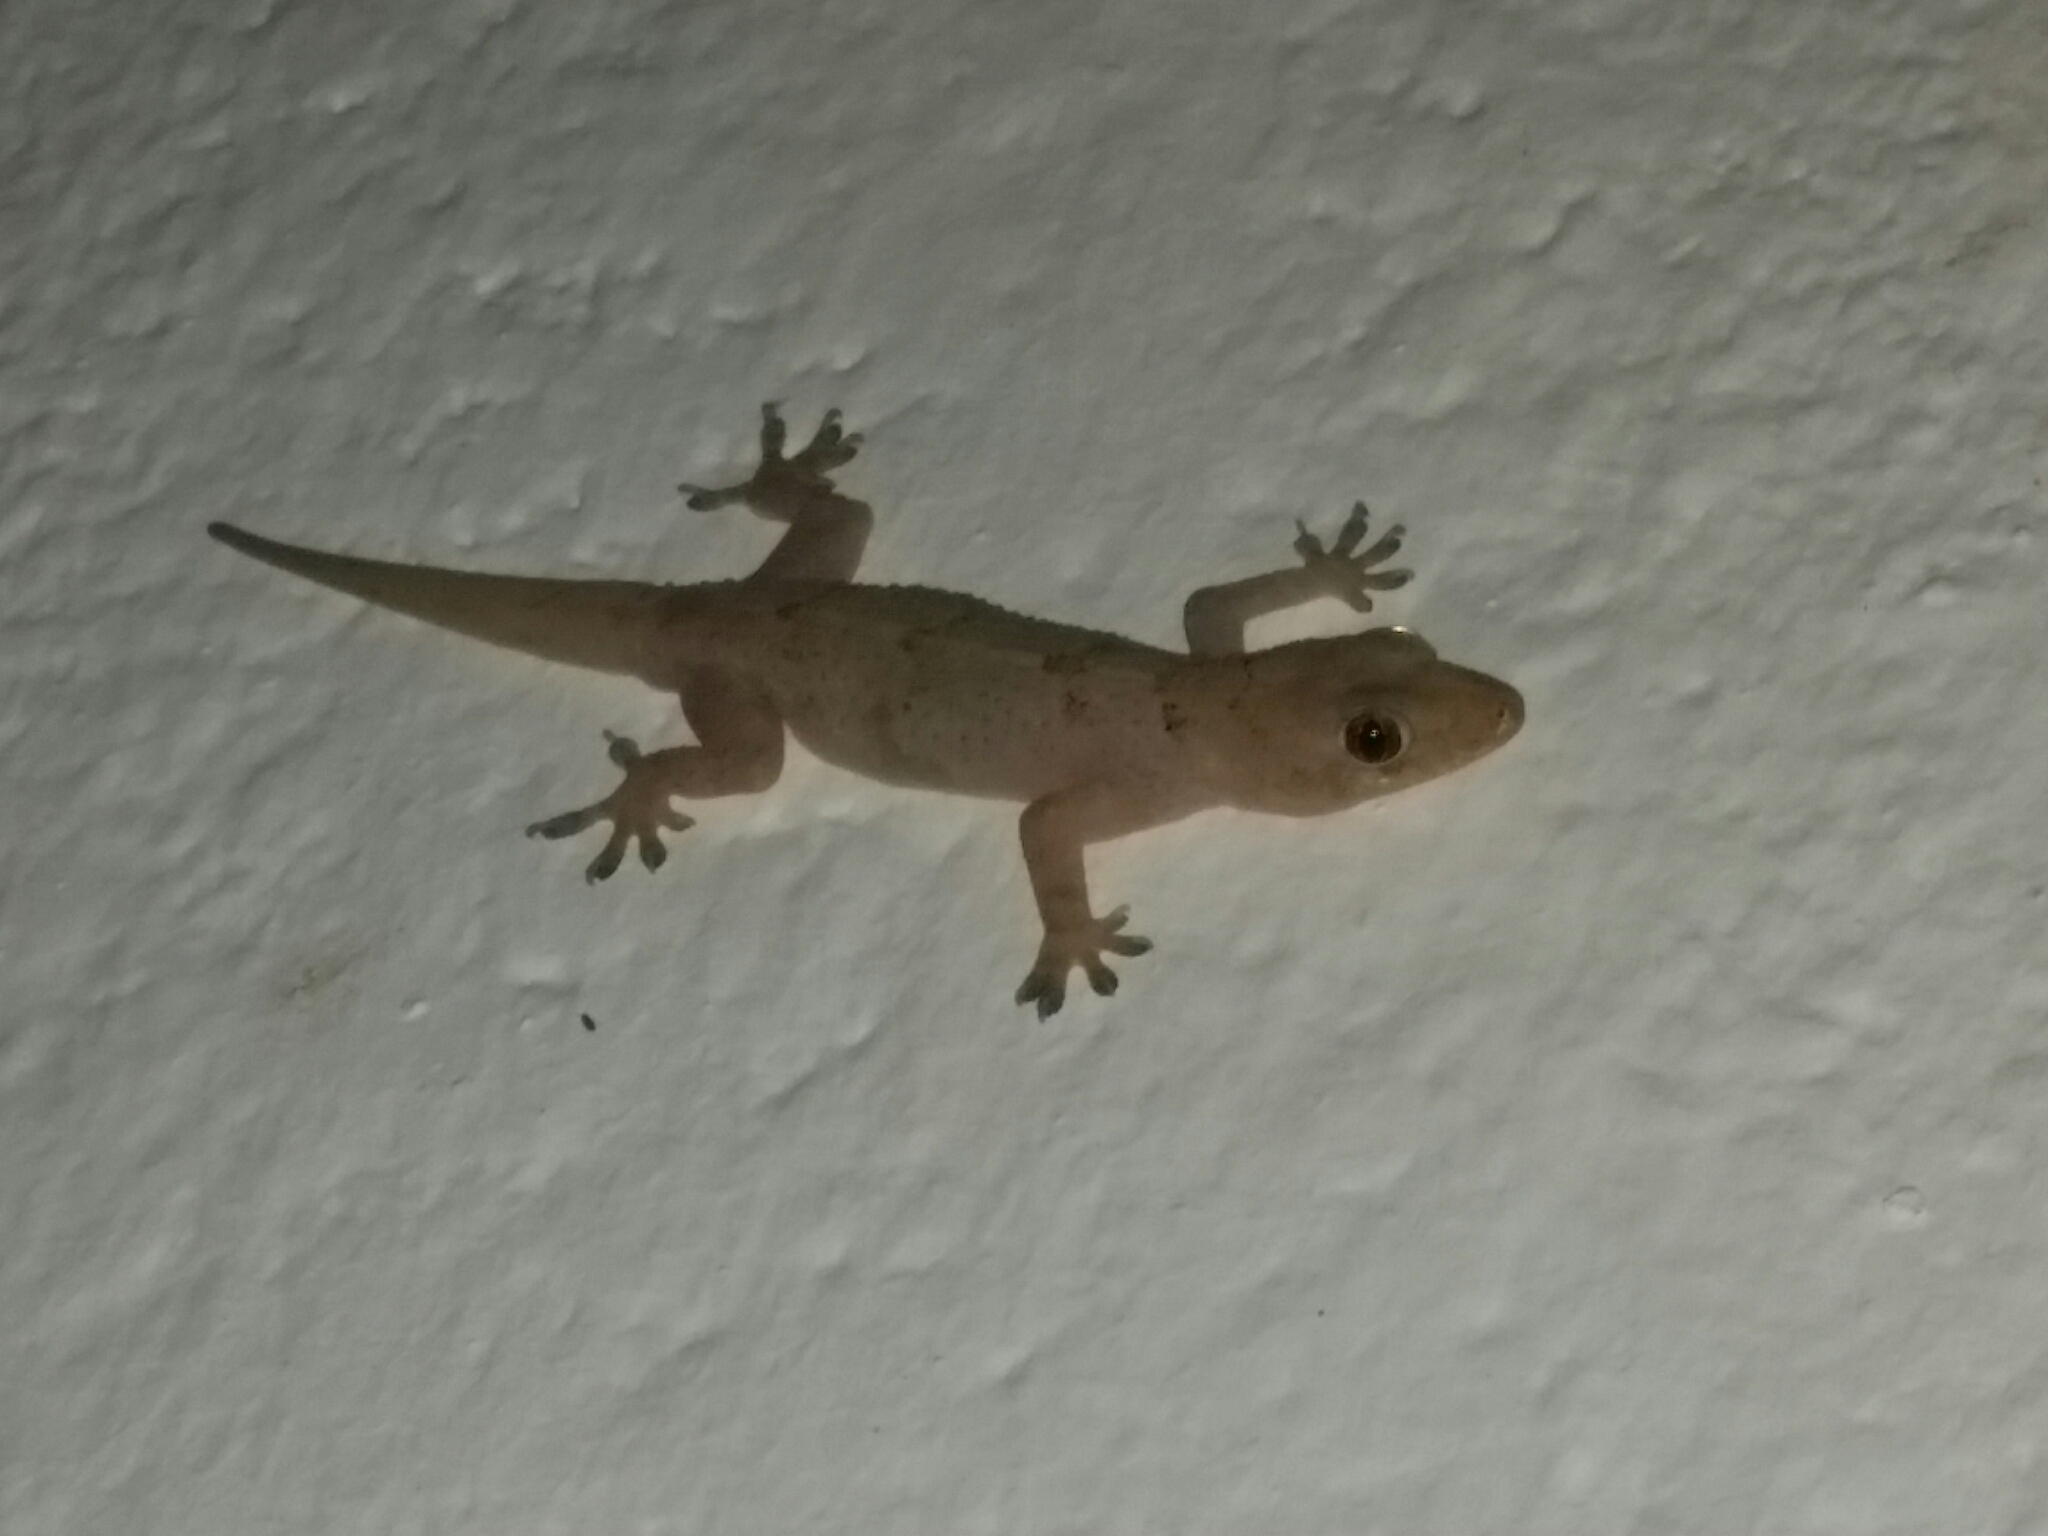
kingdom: Animalia
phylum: Chordata
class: Squamata
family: Gekkonidae
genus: Hemidactylus
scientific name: Hemidactylus mabouia
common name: House gecko
